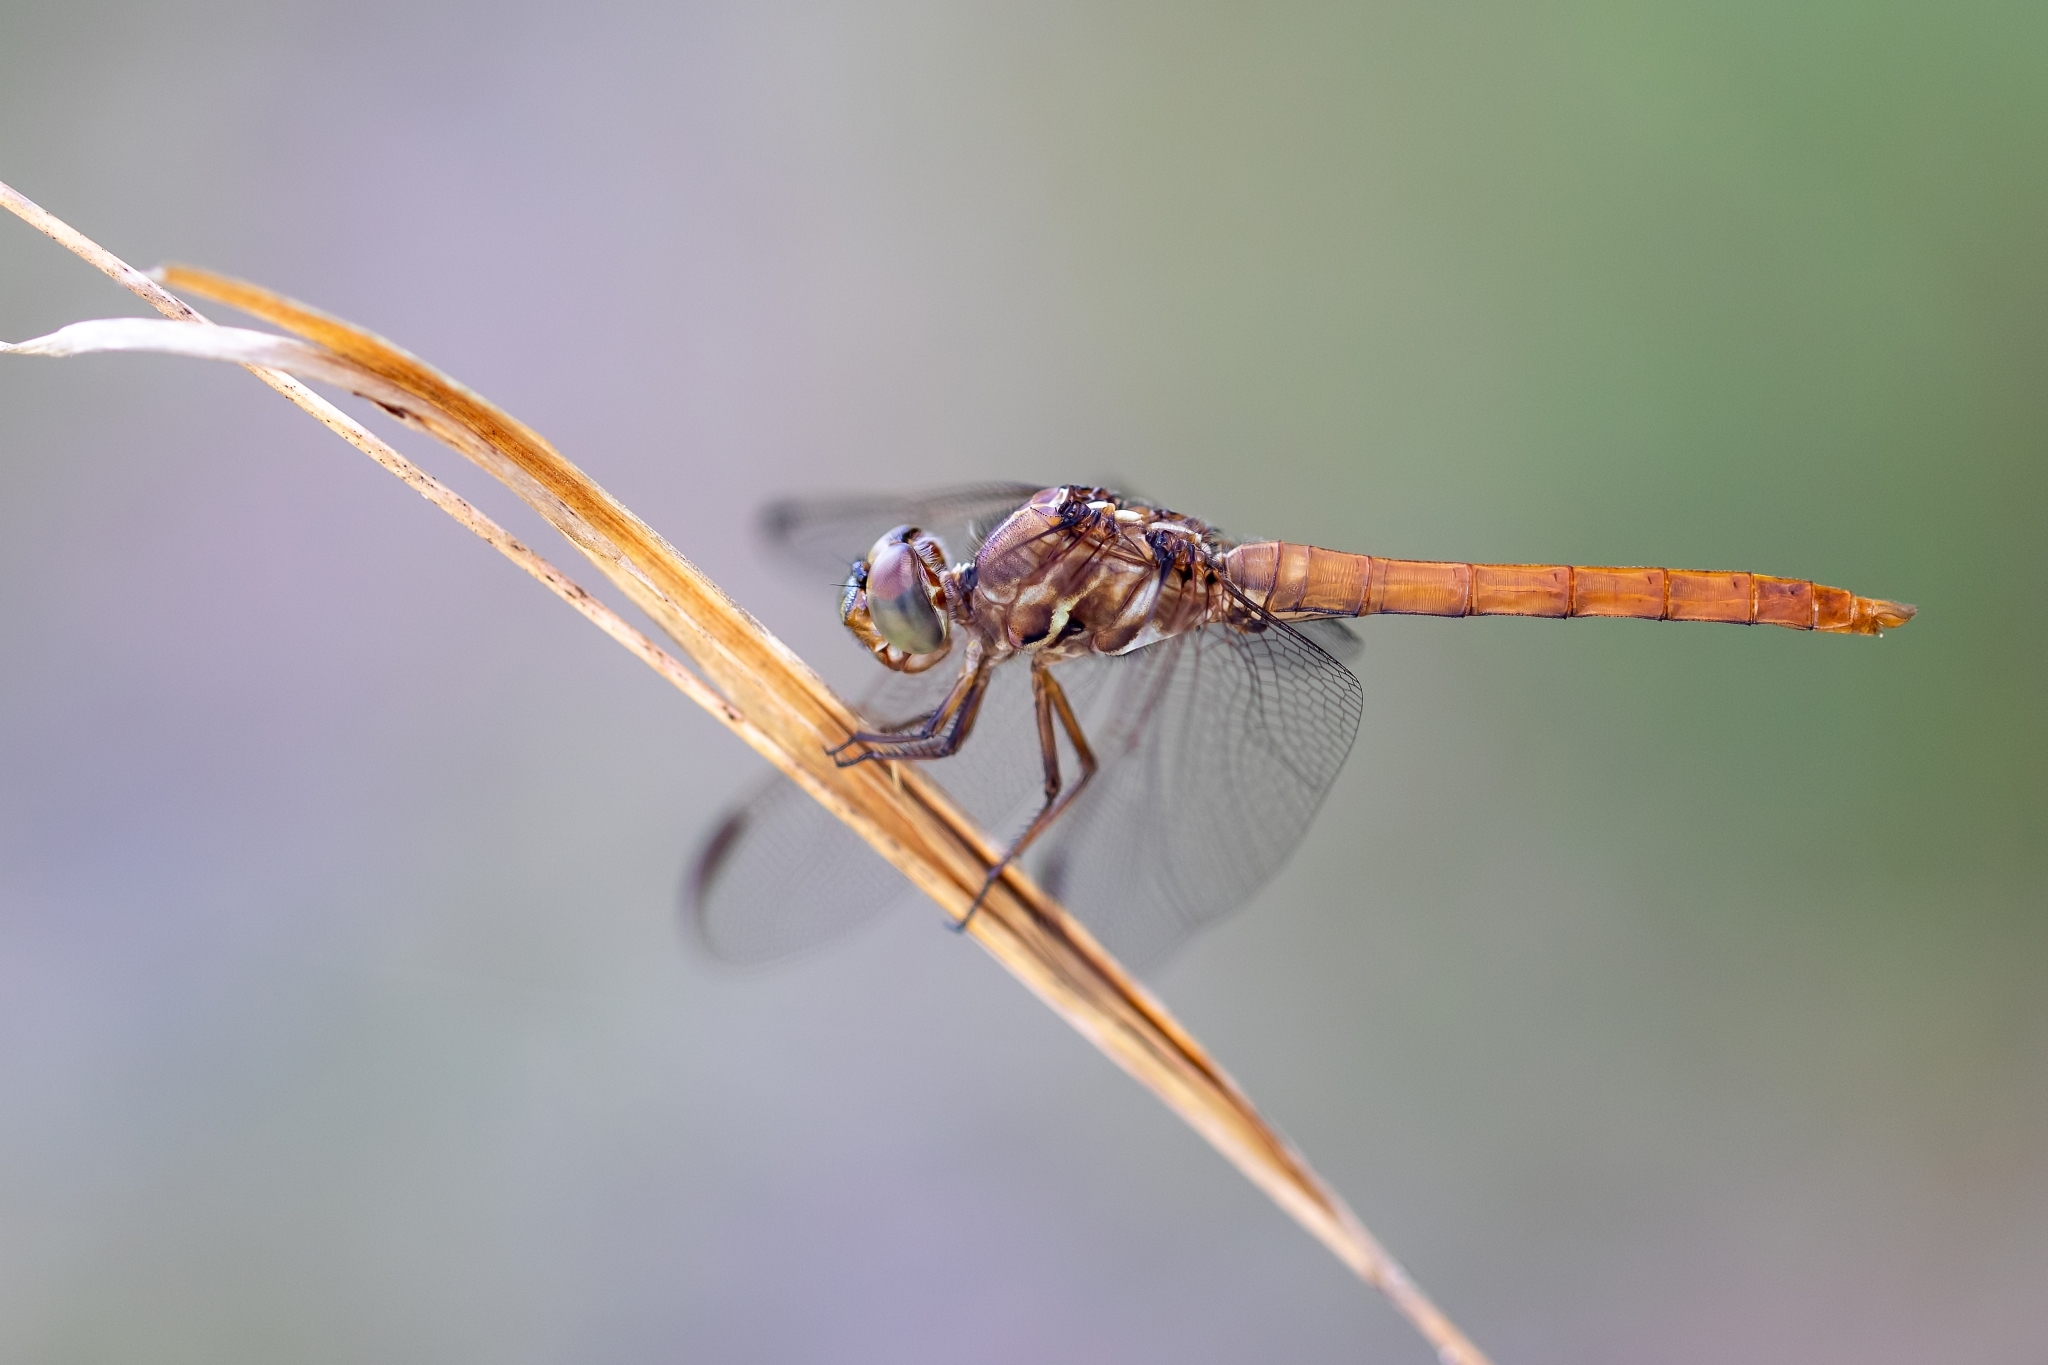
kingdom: Animalia
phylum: Arthropoda
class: Insecta
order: Odonata
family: Libellulidae
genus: Orthemis
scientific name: Orthemis ferruginea
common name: Roseate skimmer
